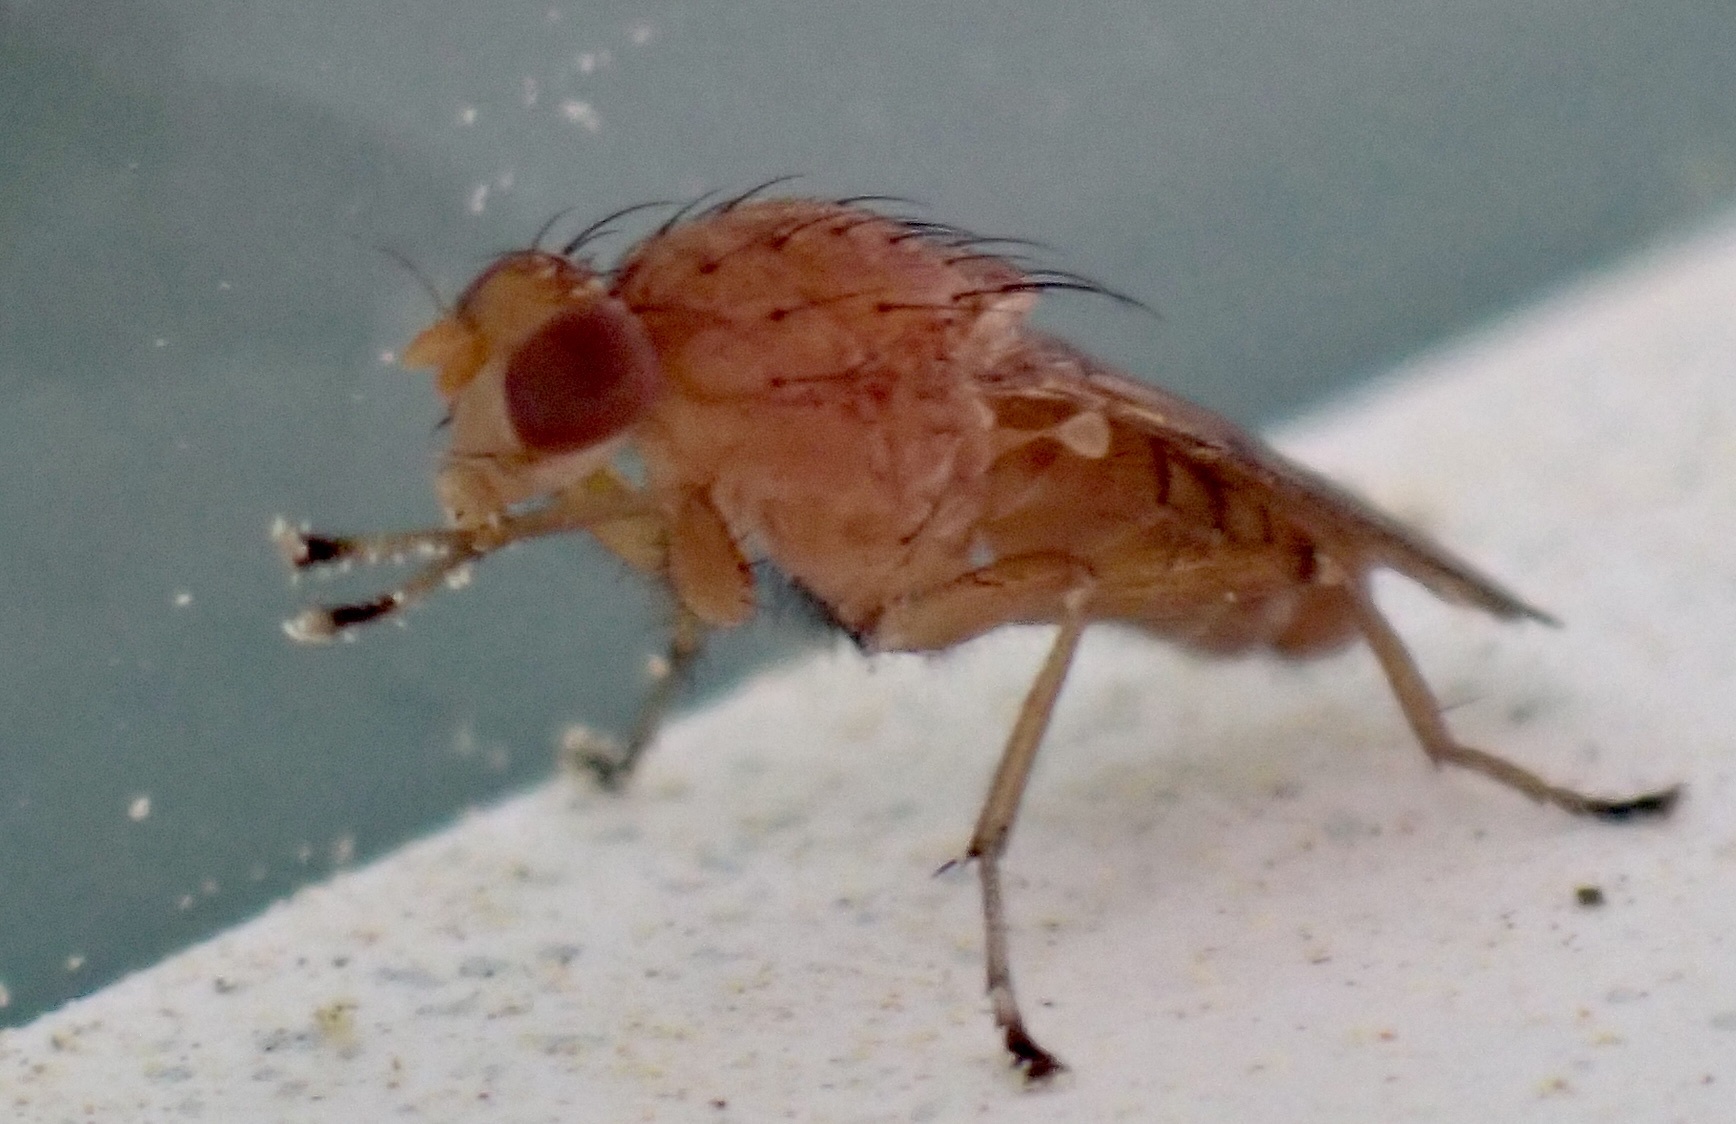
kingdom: Animalia
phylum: Arthropoda
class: Insecta
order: Diptera
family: Heleomyzidae
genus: Suillia
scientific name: Suillia quinquepunctata
